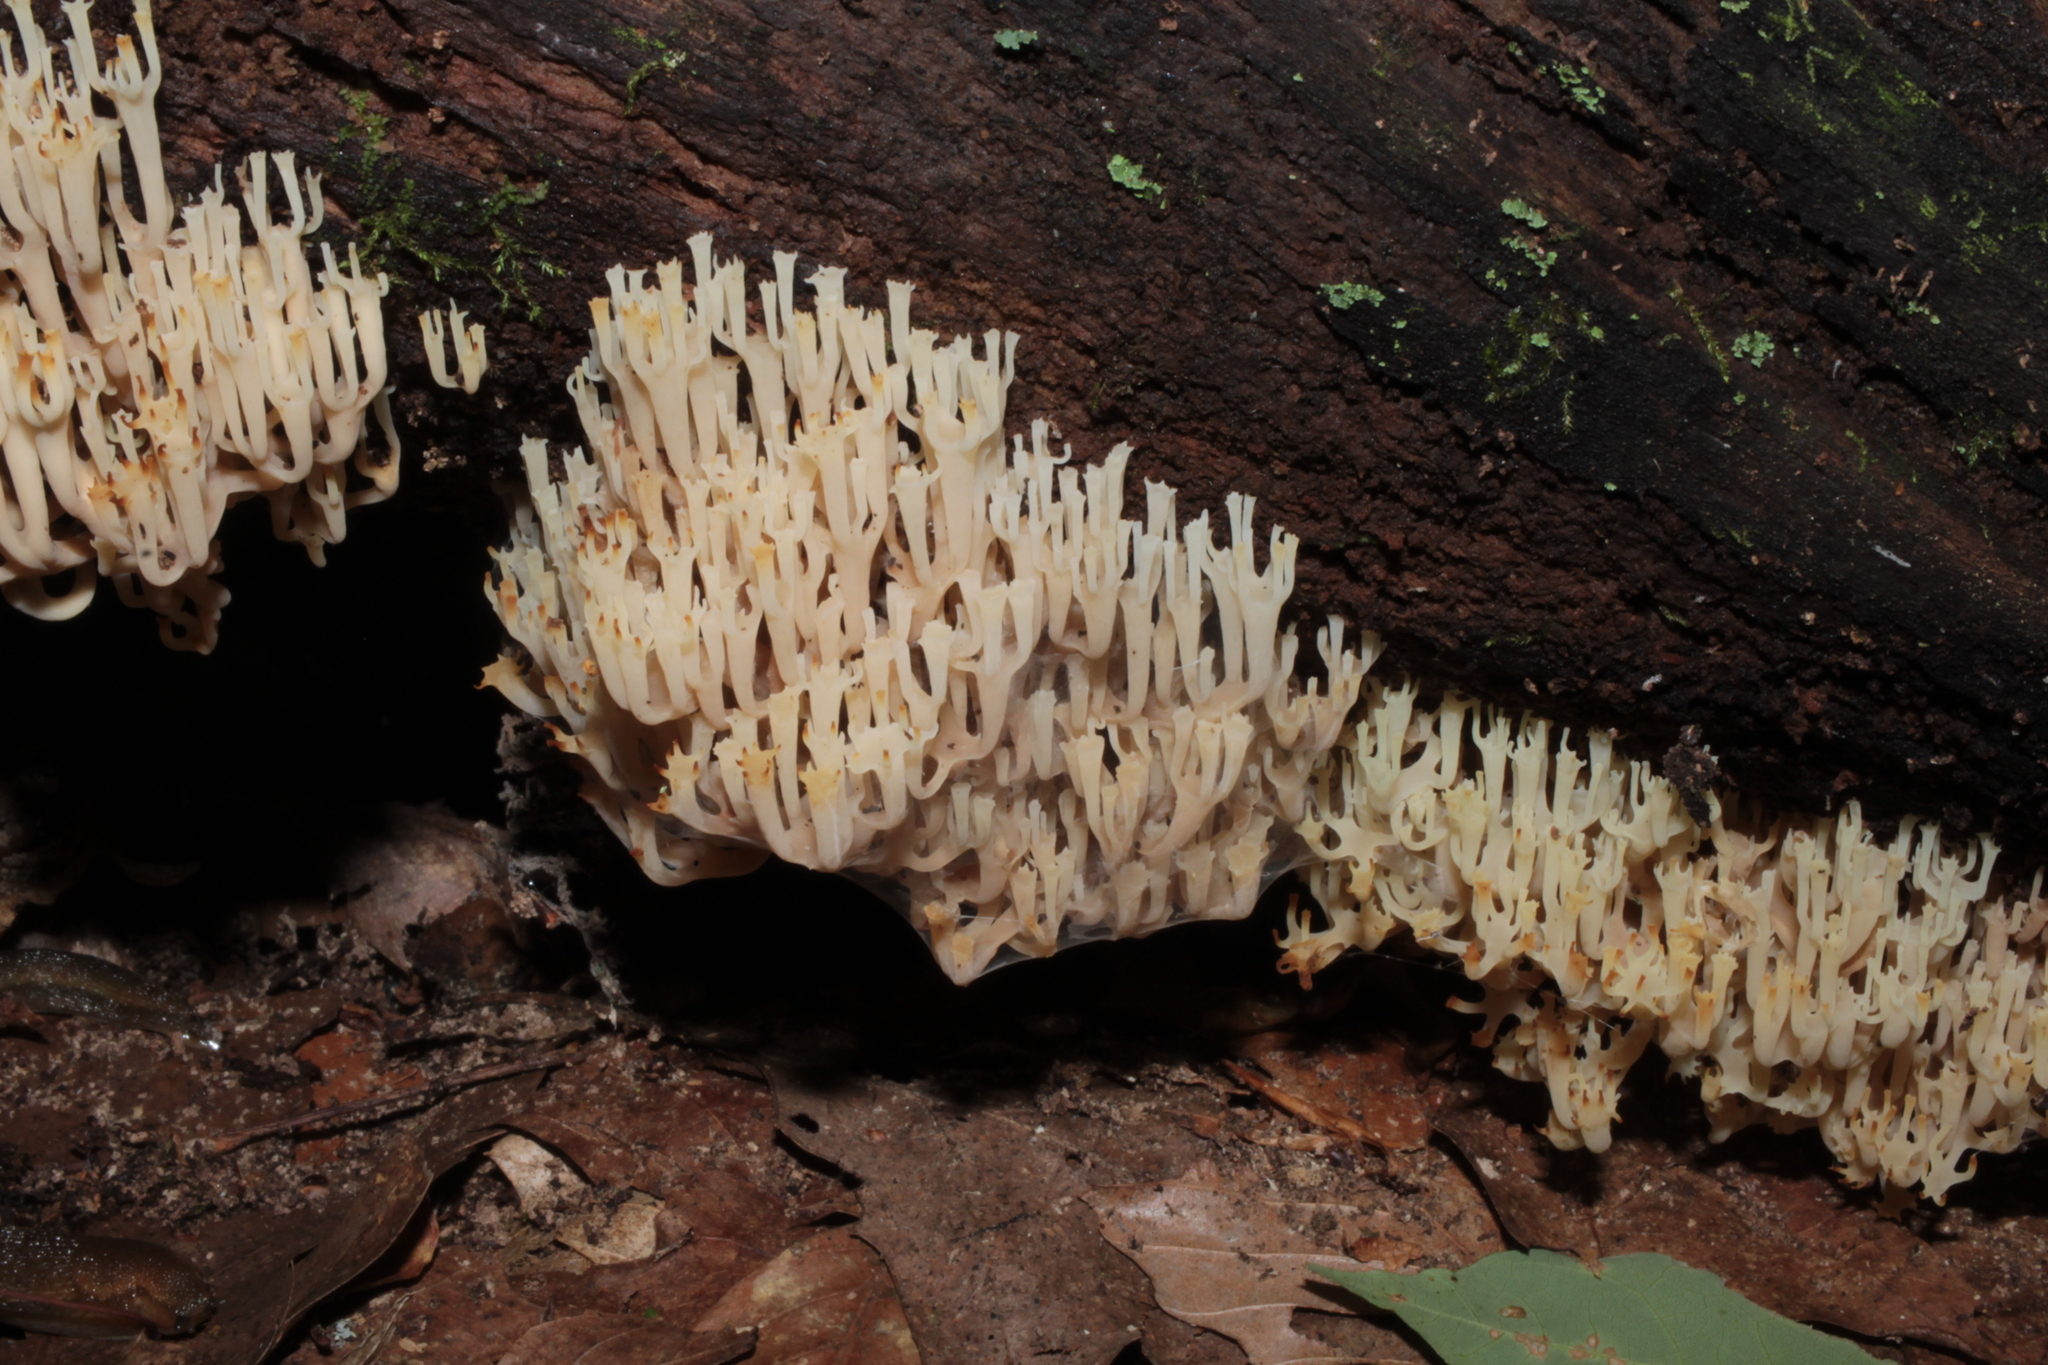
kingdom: Fungi
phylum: Basidiomycota
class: Agaricomycetes
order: Russulales
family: Auriscalpiaceae
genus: Artomyces
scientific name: Artomyces pyxidatus
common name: Crown-tipped coral fungus
